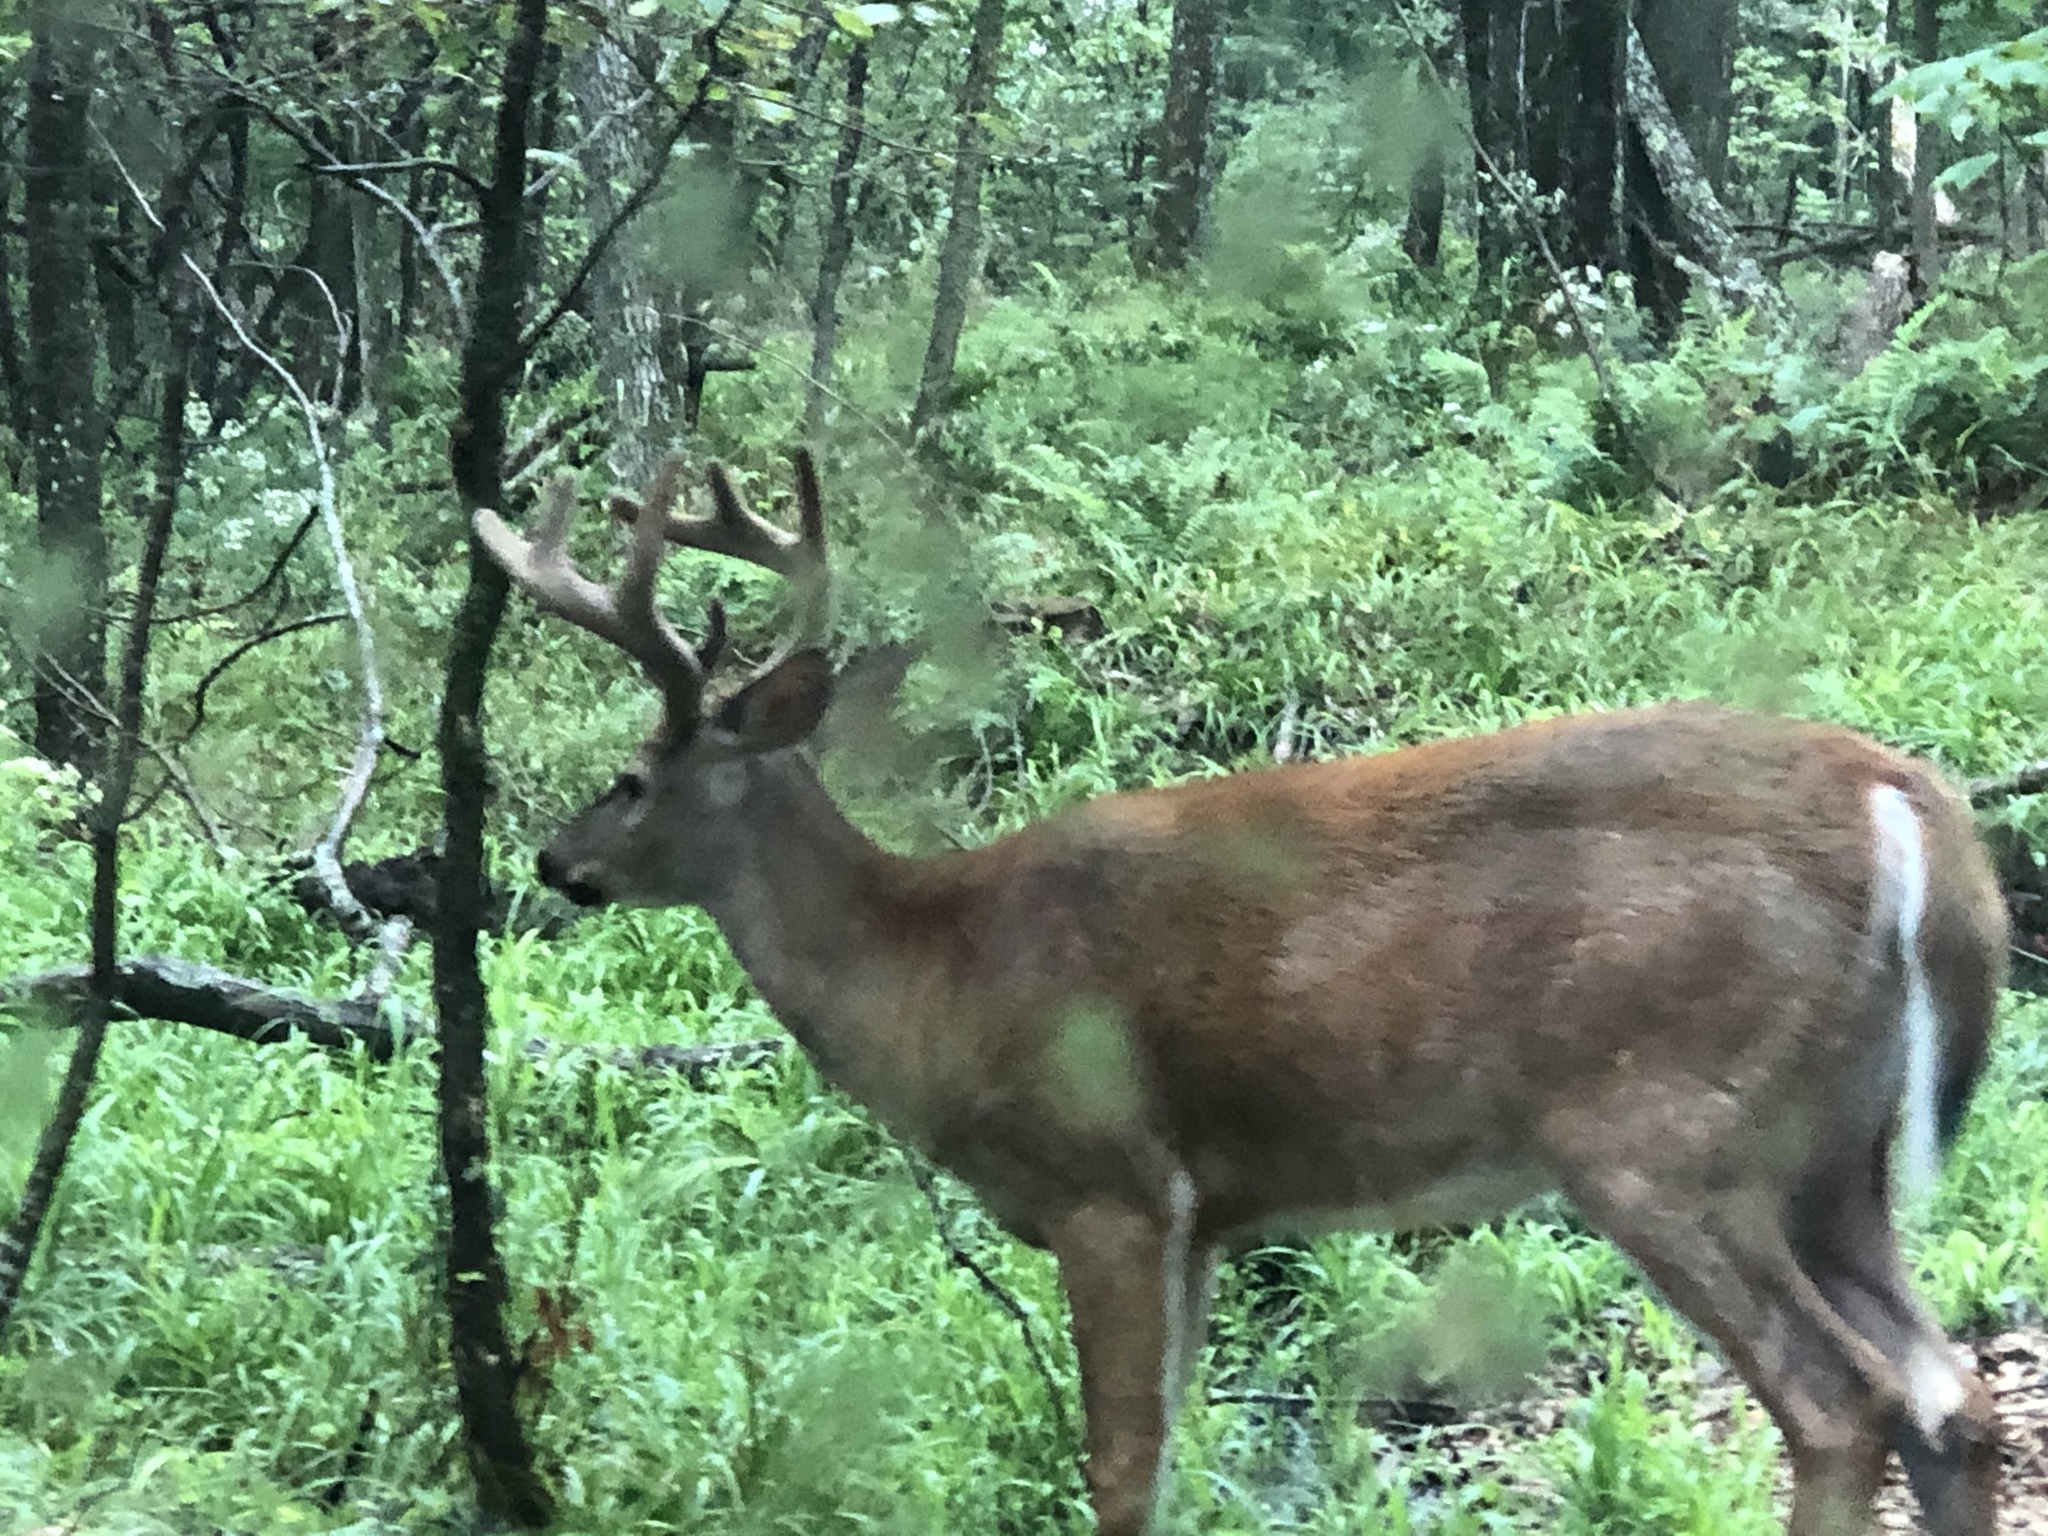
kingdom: Animalia
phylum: Chordata
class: Mammalia
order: Artiodactyla
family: Cervidae
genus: Odocoileus
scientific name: Odocoileus virginianus
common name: White-tailed deer
